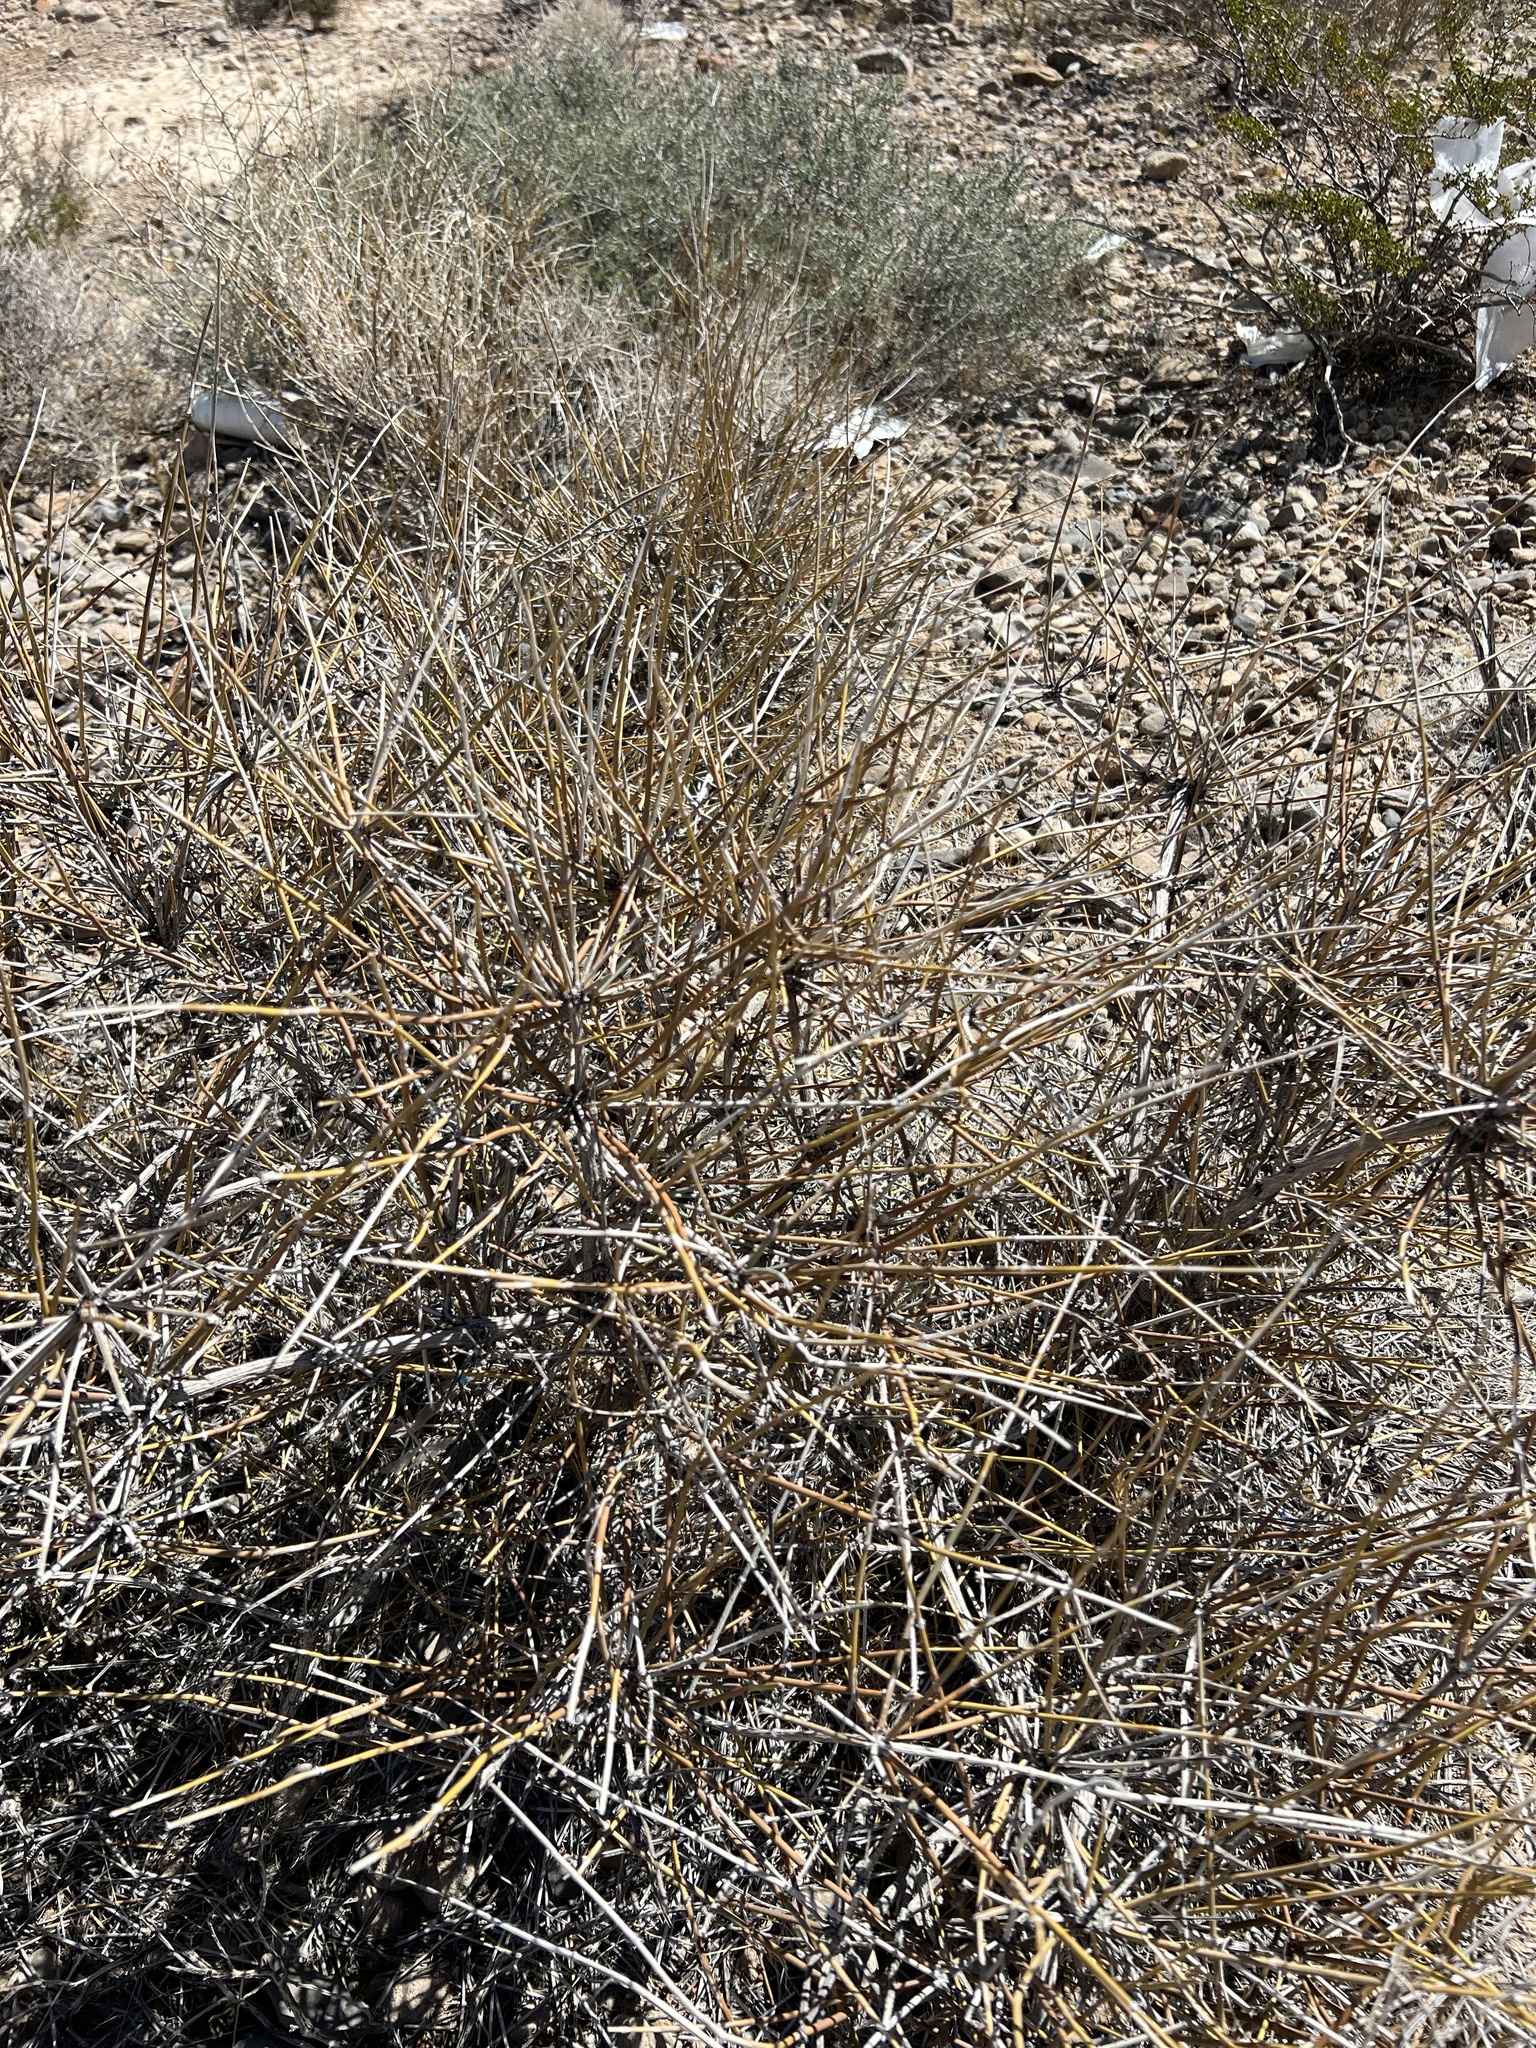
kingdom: Plantae
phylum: Tracheophyta
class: Gnetopsida
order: Ephedrales
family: Ephedraceae
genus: Ephedra
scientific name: Ephedra nevadensis
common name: Gray ephedra
